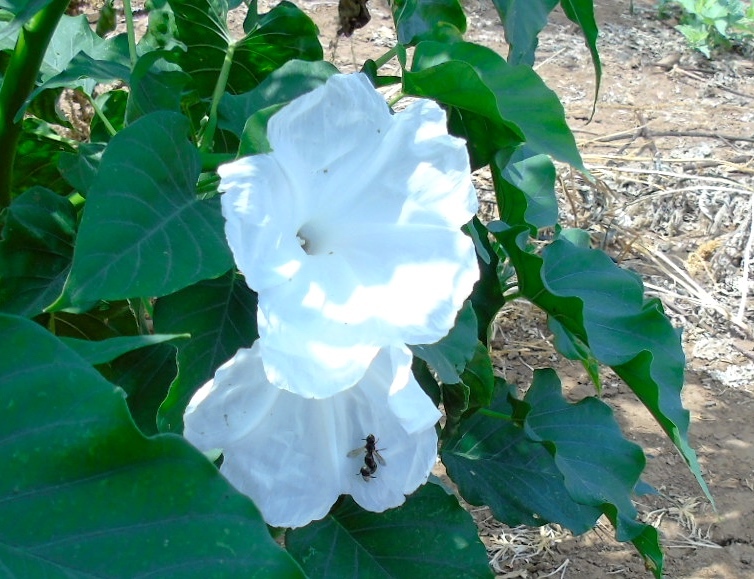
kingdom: Plantae
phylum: Tracheophyta
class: Magnoliopsida
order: Solanales
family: Convolvulaceae
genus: Ipomoea
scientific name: Ipomoea carnea
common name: Morning-glory
